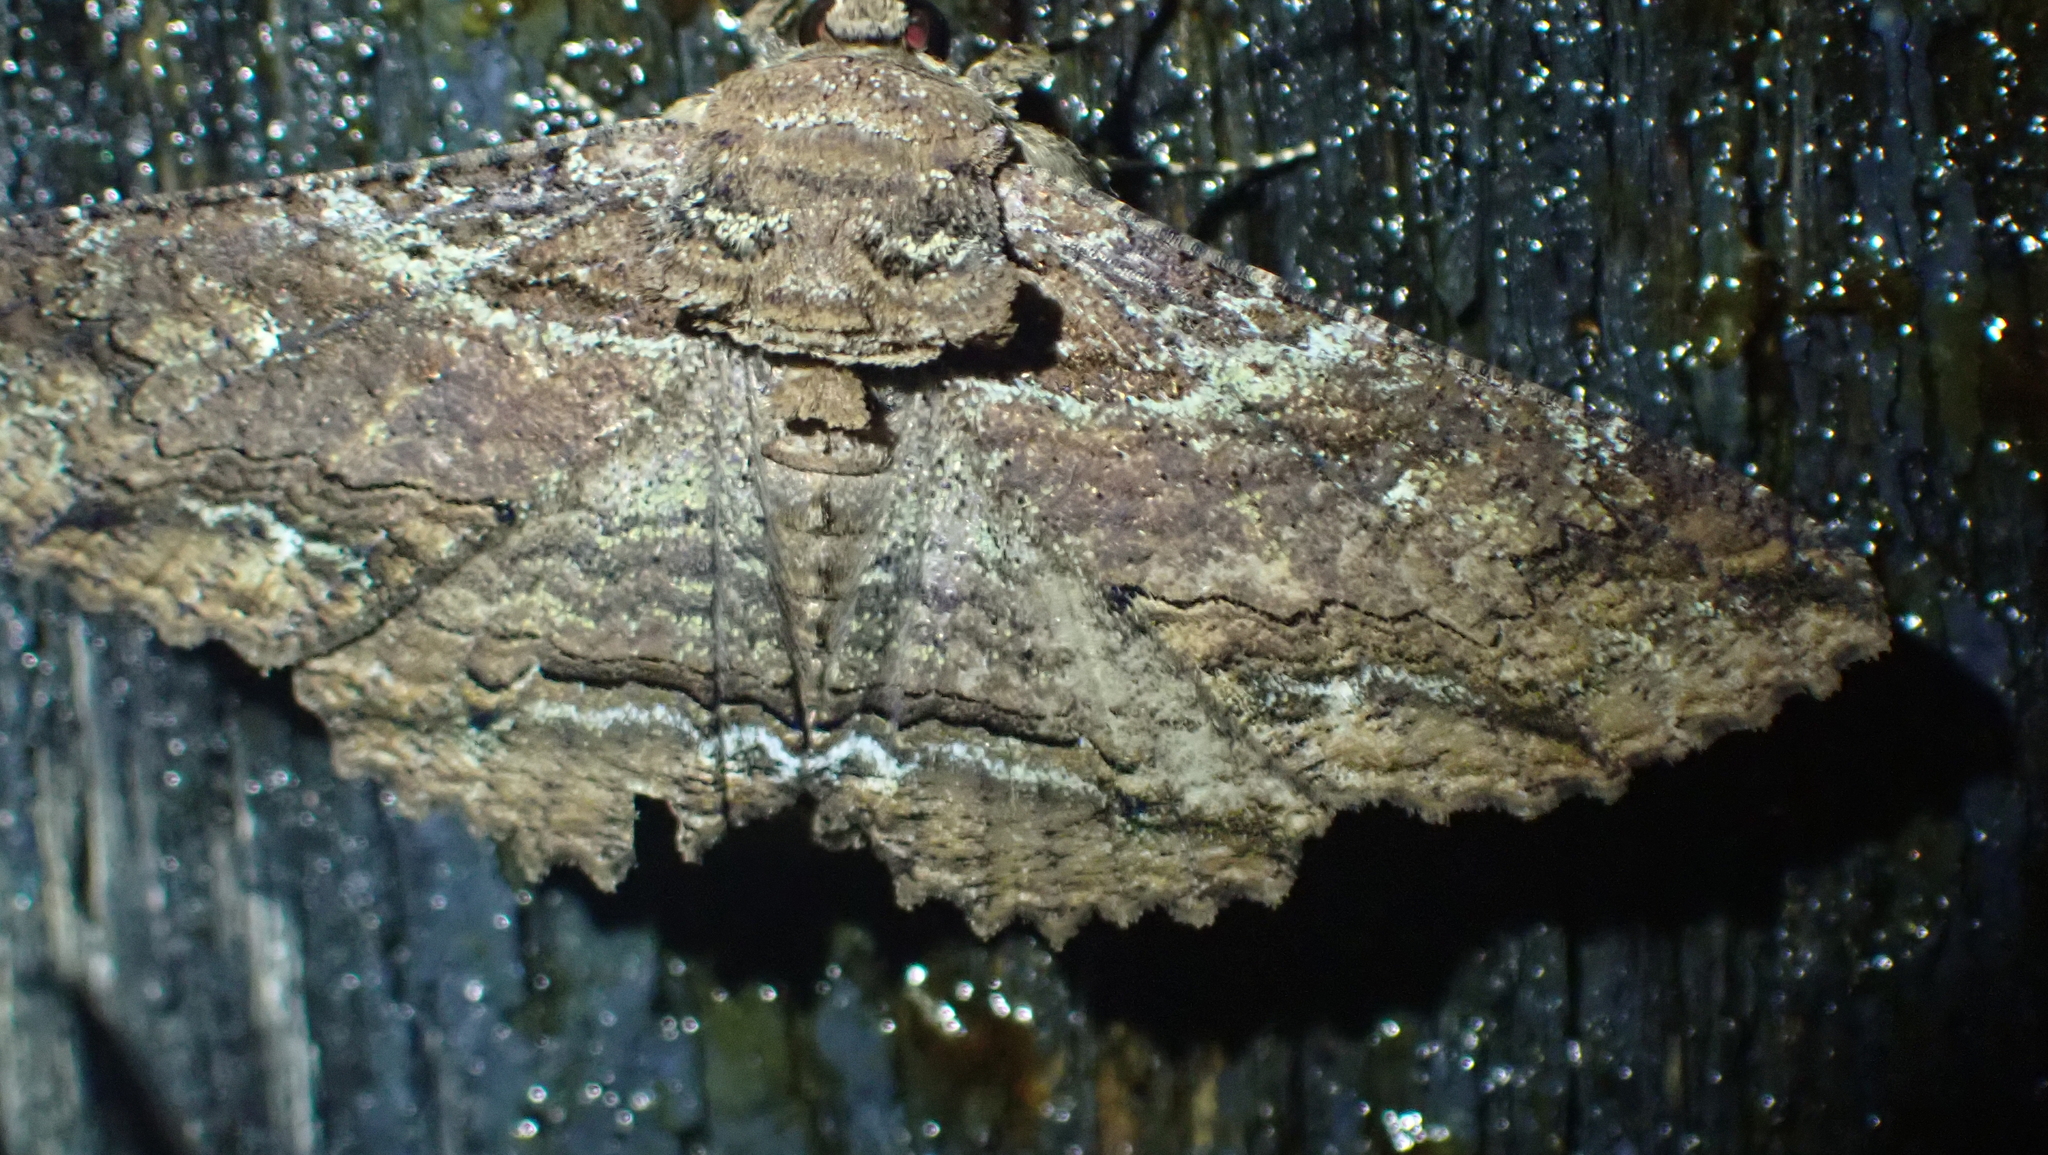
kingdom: Animalia
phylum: Arthropoda
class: Insecta
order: Lepidoptera
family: Erebidae
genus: Zale
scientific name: Zale lunata
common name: Lunate zale moth
